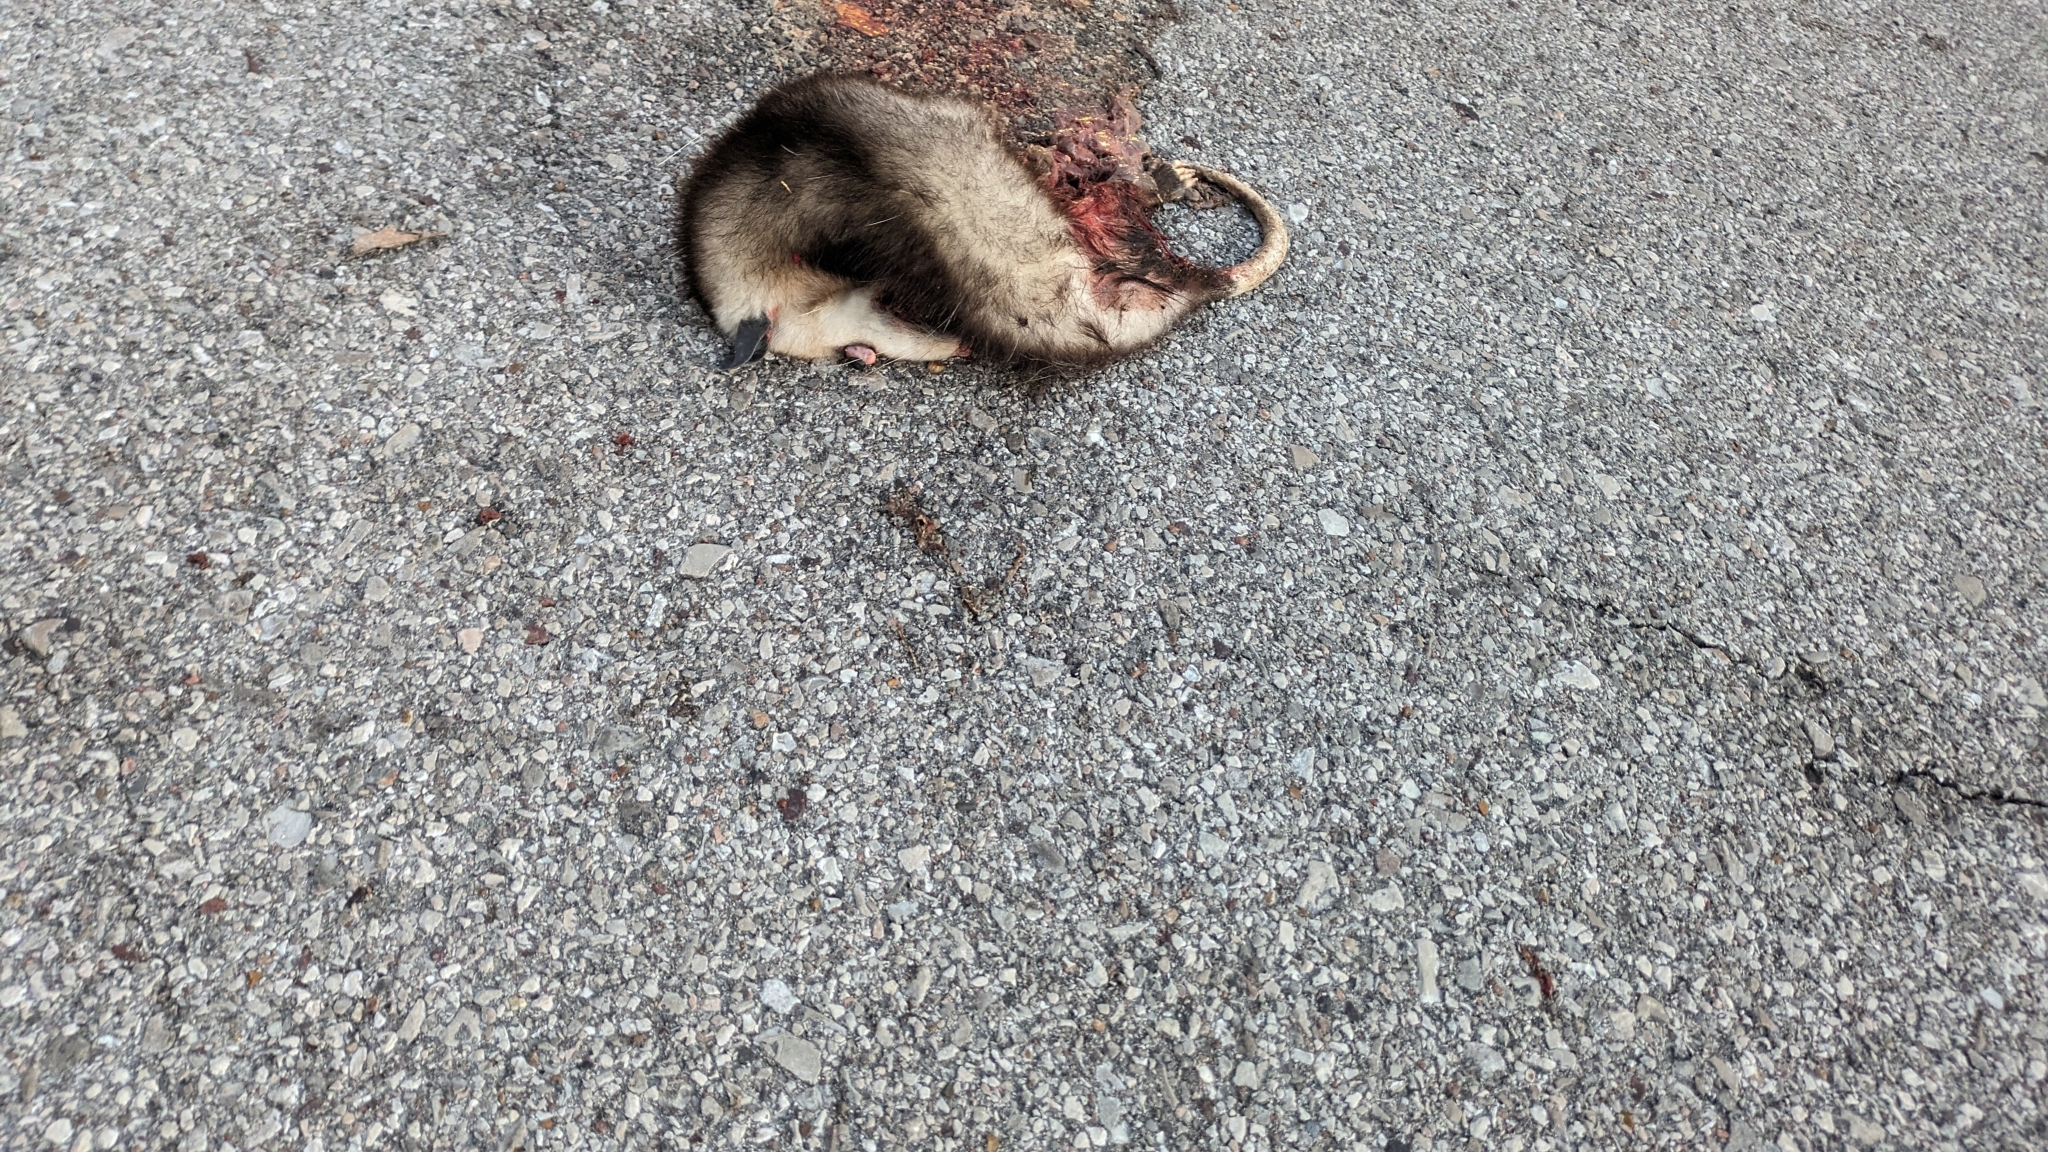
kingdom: Animalia
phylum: Chordata
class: Mammalia
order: Didelphimorphia
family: Didelphidae
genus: Didelphis
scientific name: Didelphis virginiana
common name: Virginia opossum
